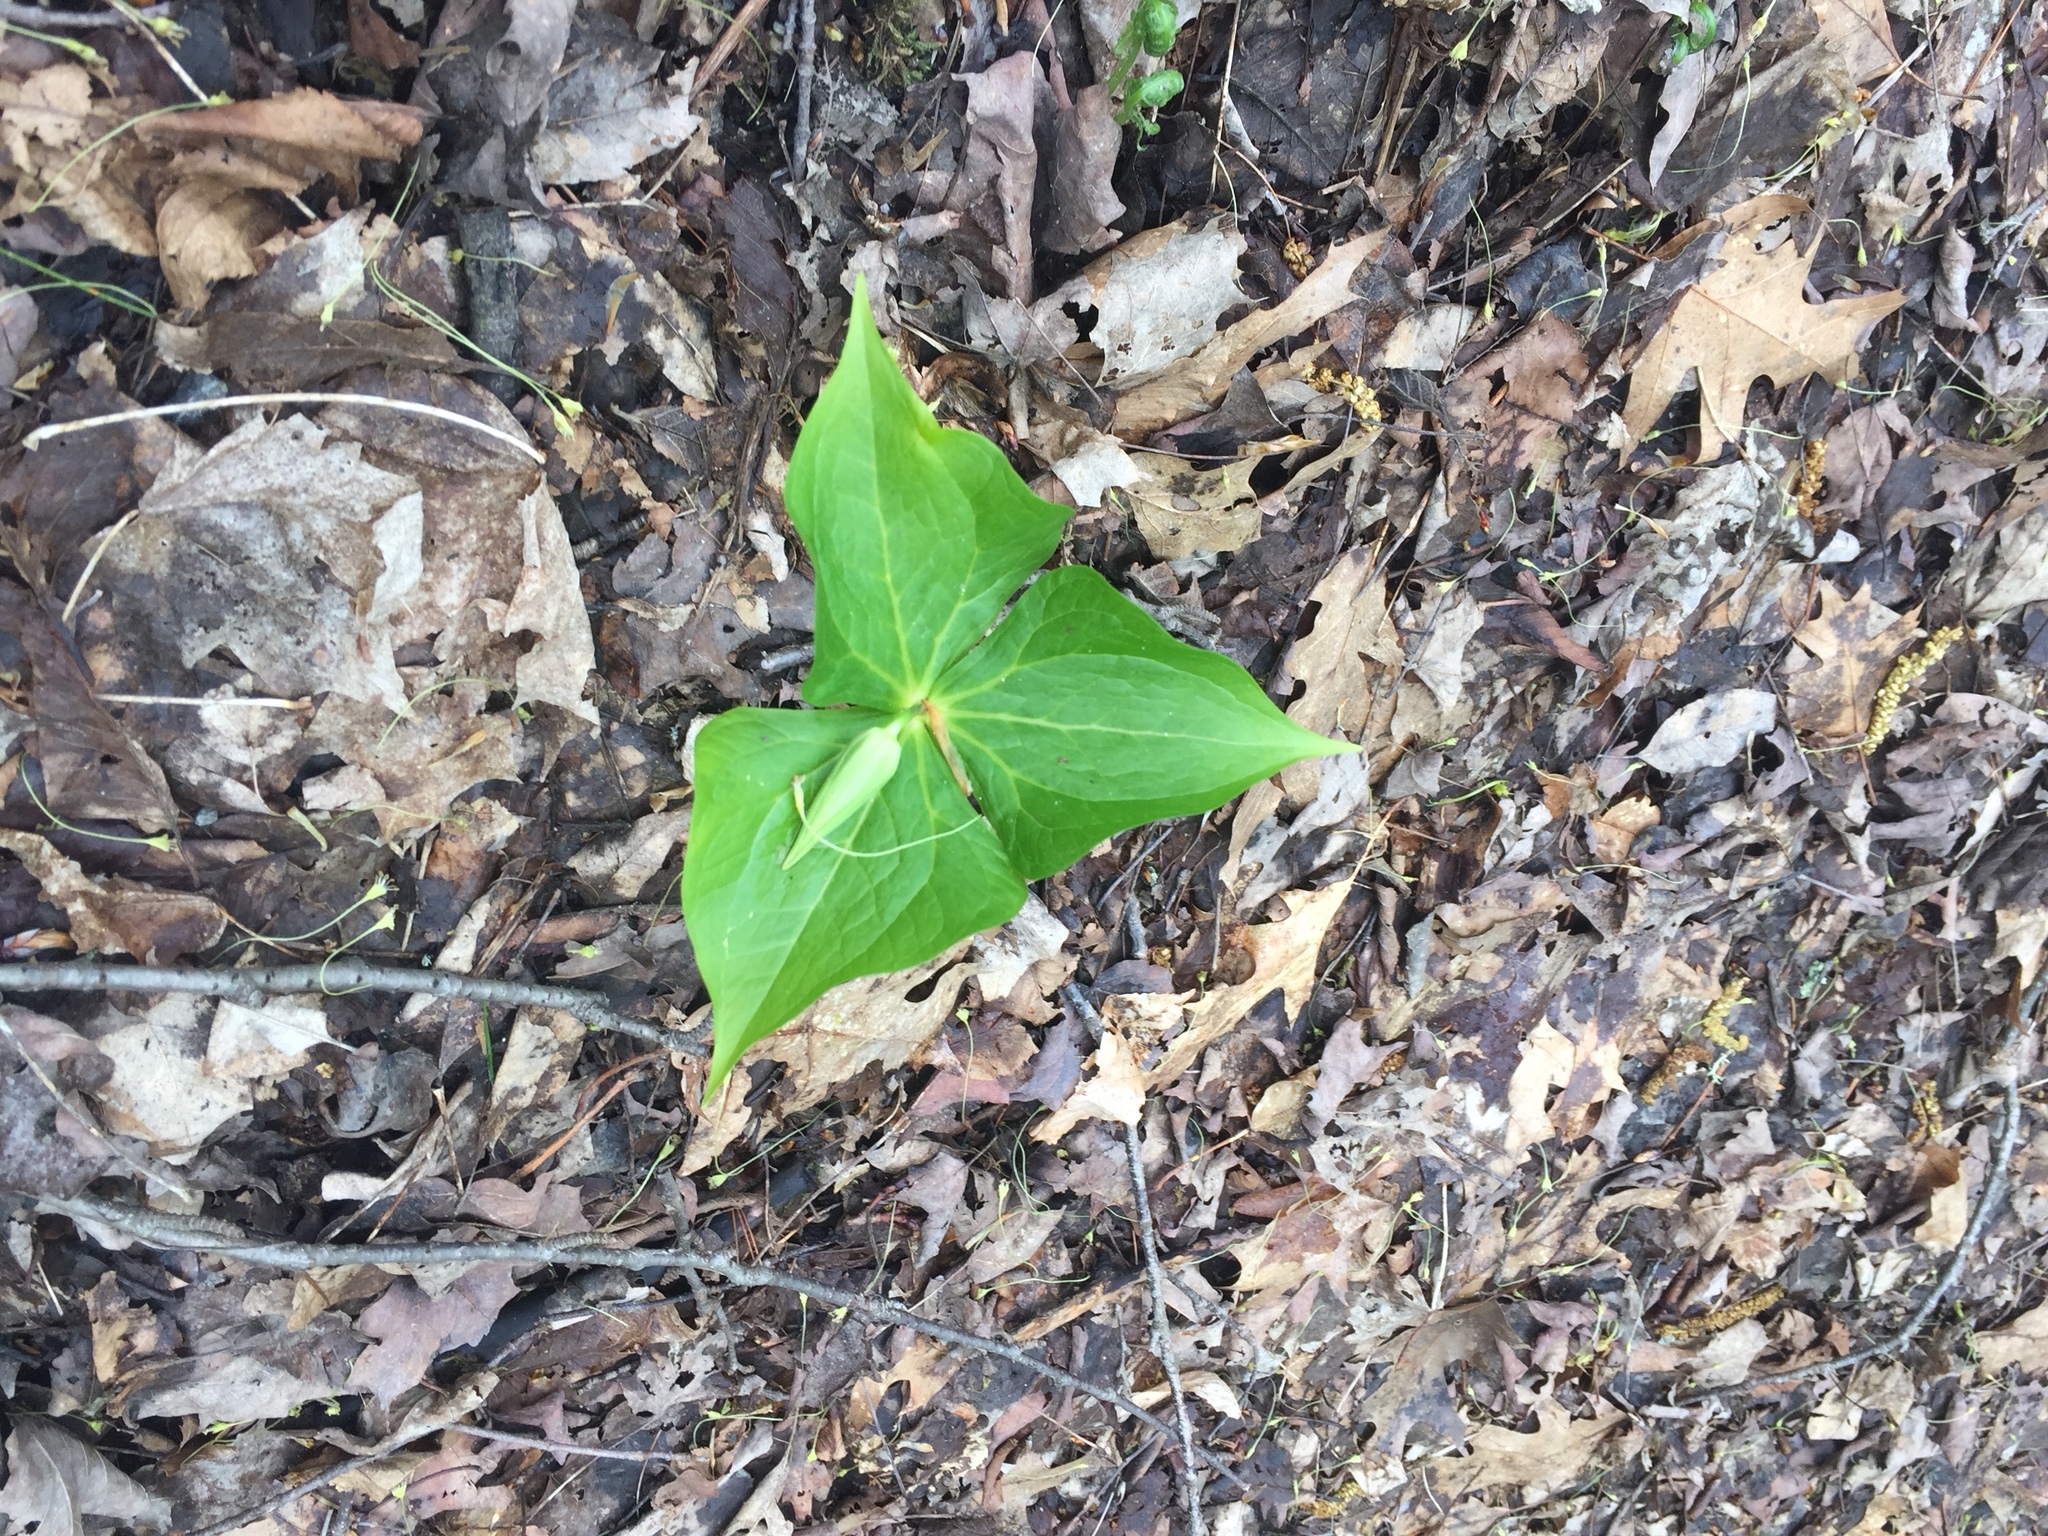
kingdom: Plantae
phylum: Tracheophyta
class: Liliopsida
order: Liliales
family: Melanthiaceae
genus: Trillium
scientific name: Trillium erectum
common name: Purple trillium
